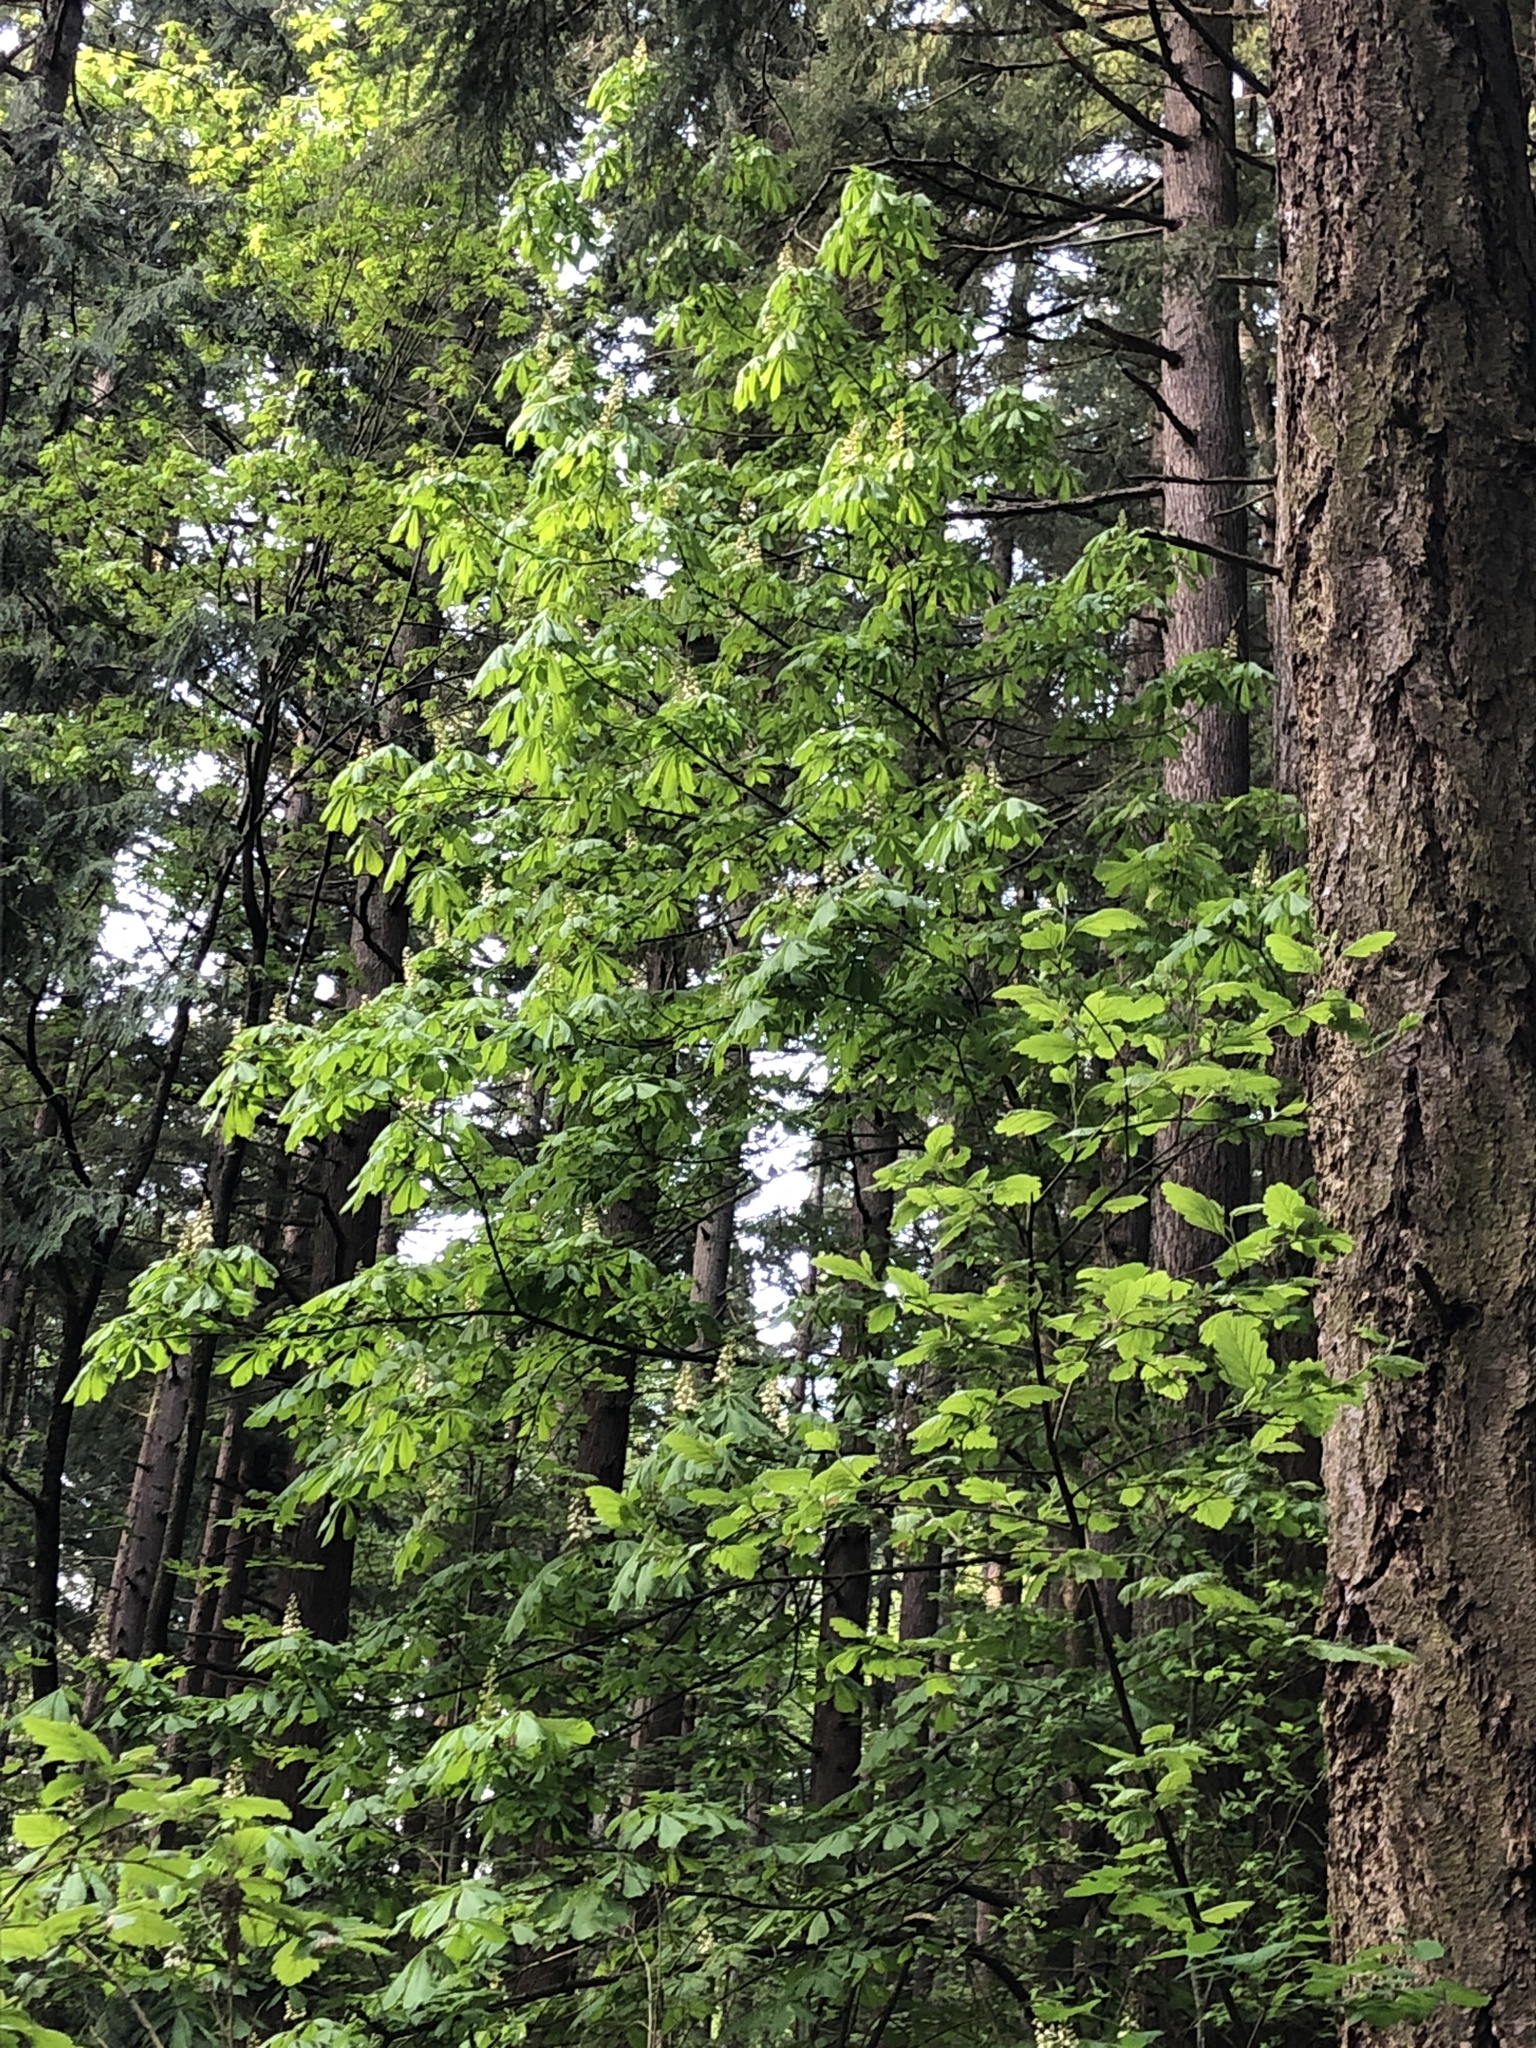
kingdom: Plantae
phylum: Tracheophyta
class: Magnoliopsida
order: Sapindales
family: Sapindaceae
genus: Aesculus
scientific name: Aesculus hippocastanum
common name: Horse-chestnut
